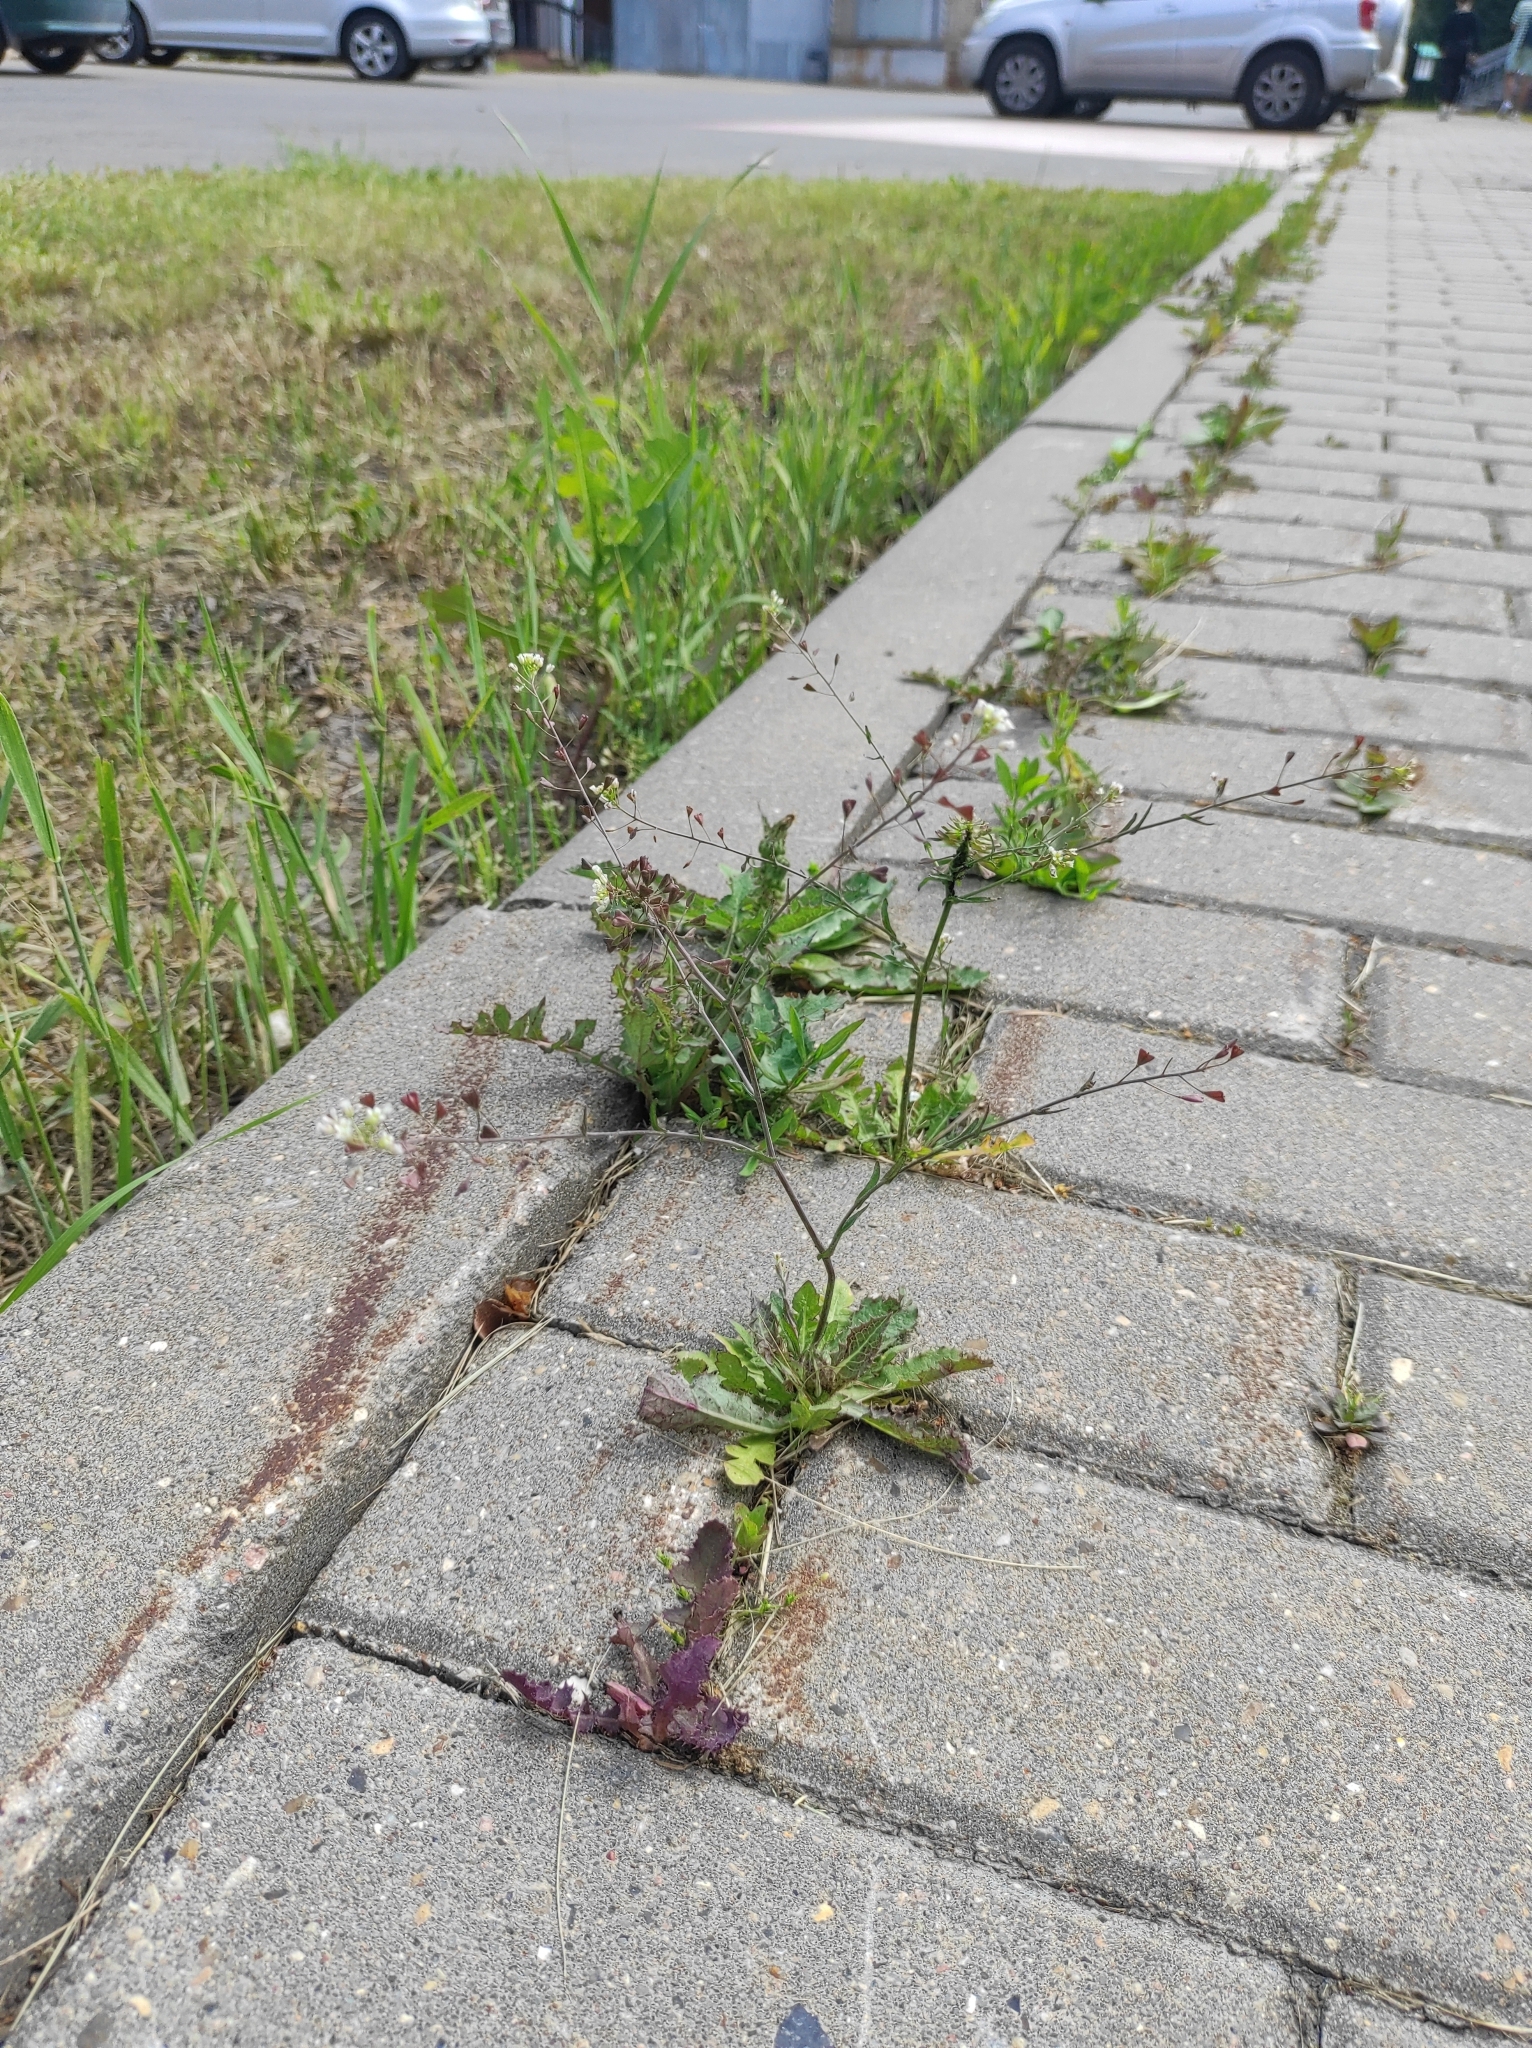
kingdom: Plantae
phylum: Tracheophyta
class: Magnoliopsida
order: Brassicales
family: Brassicaceae
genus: Capsella
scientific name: Capsella bursa-pastoris
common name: Shepherd's purse
